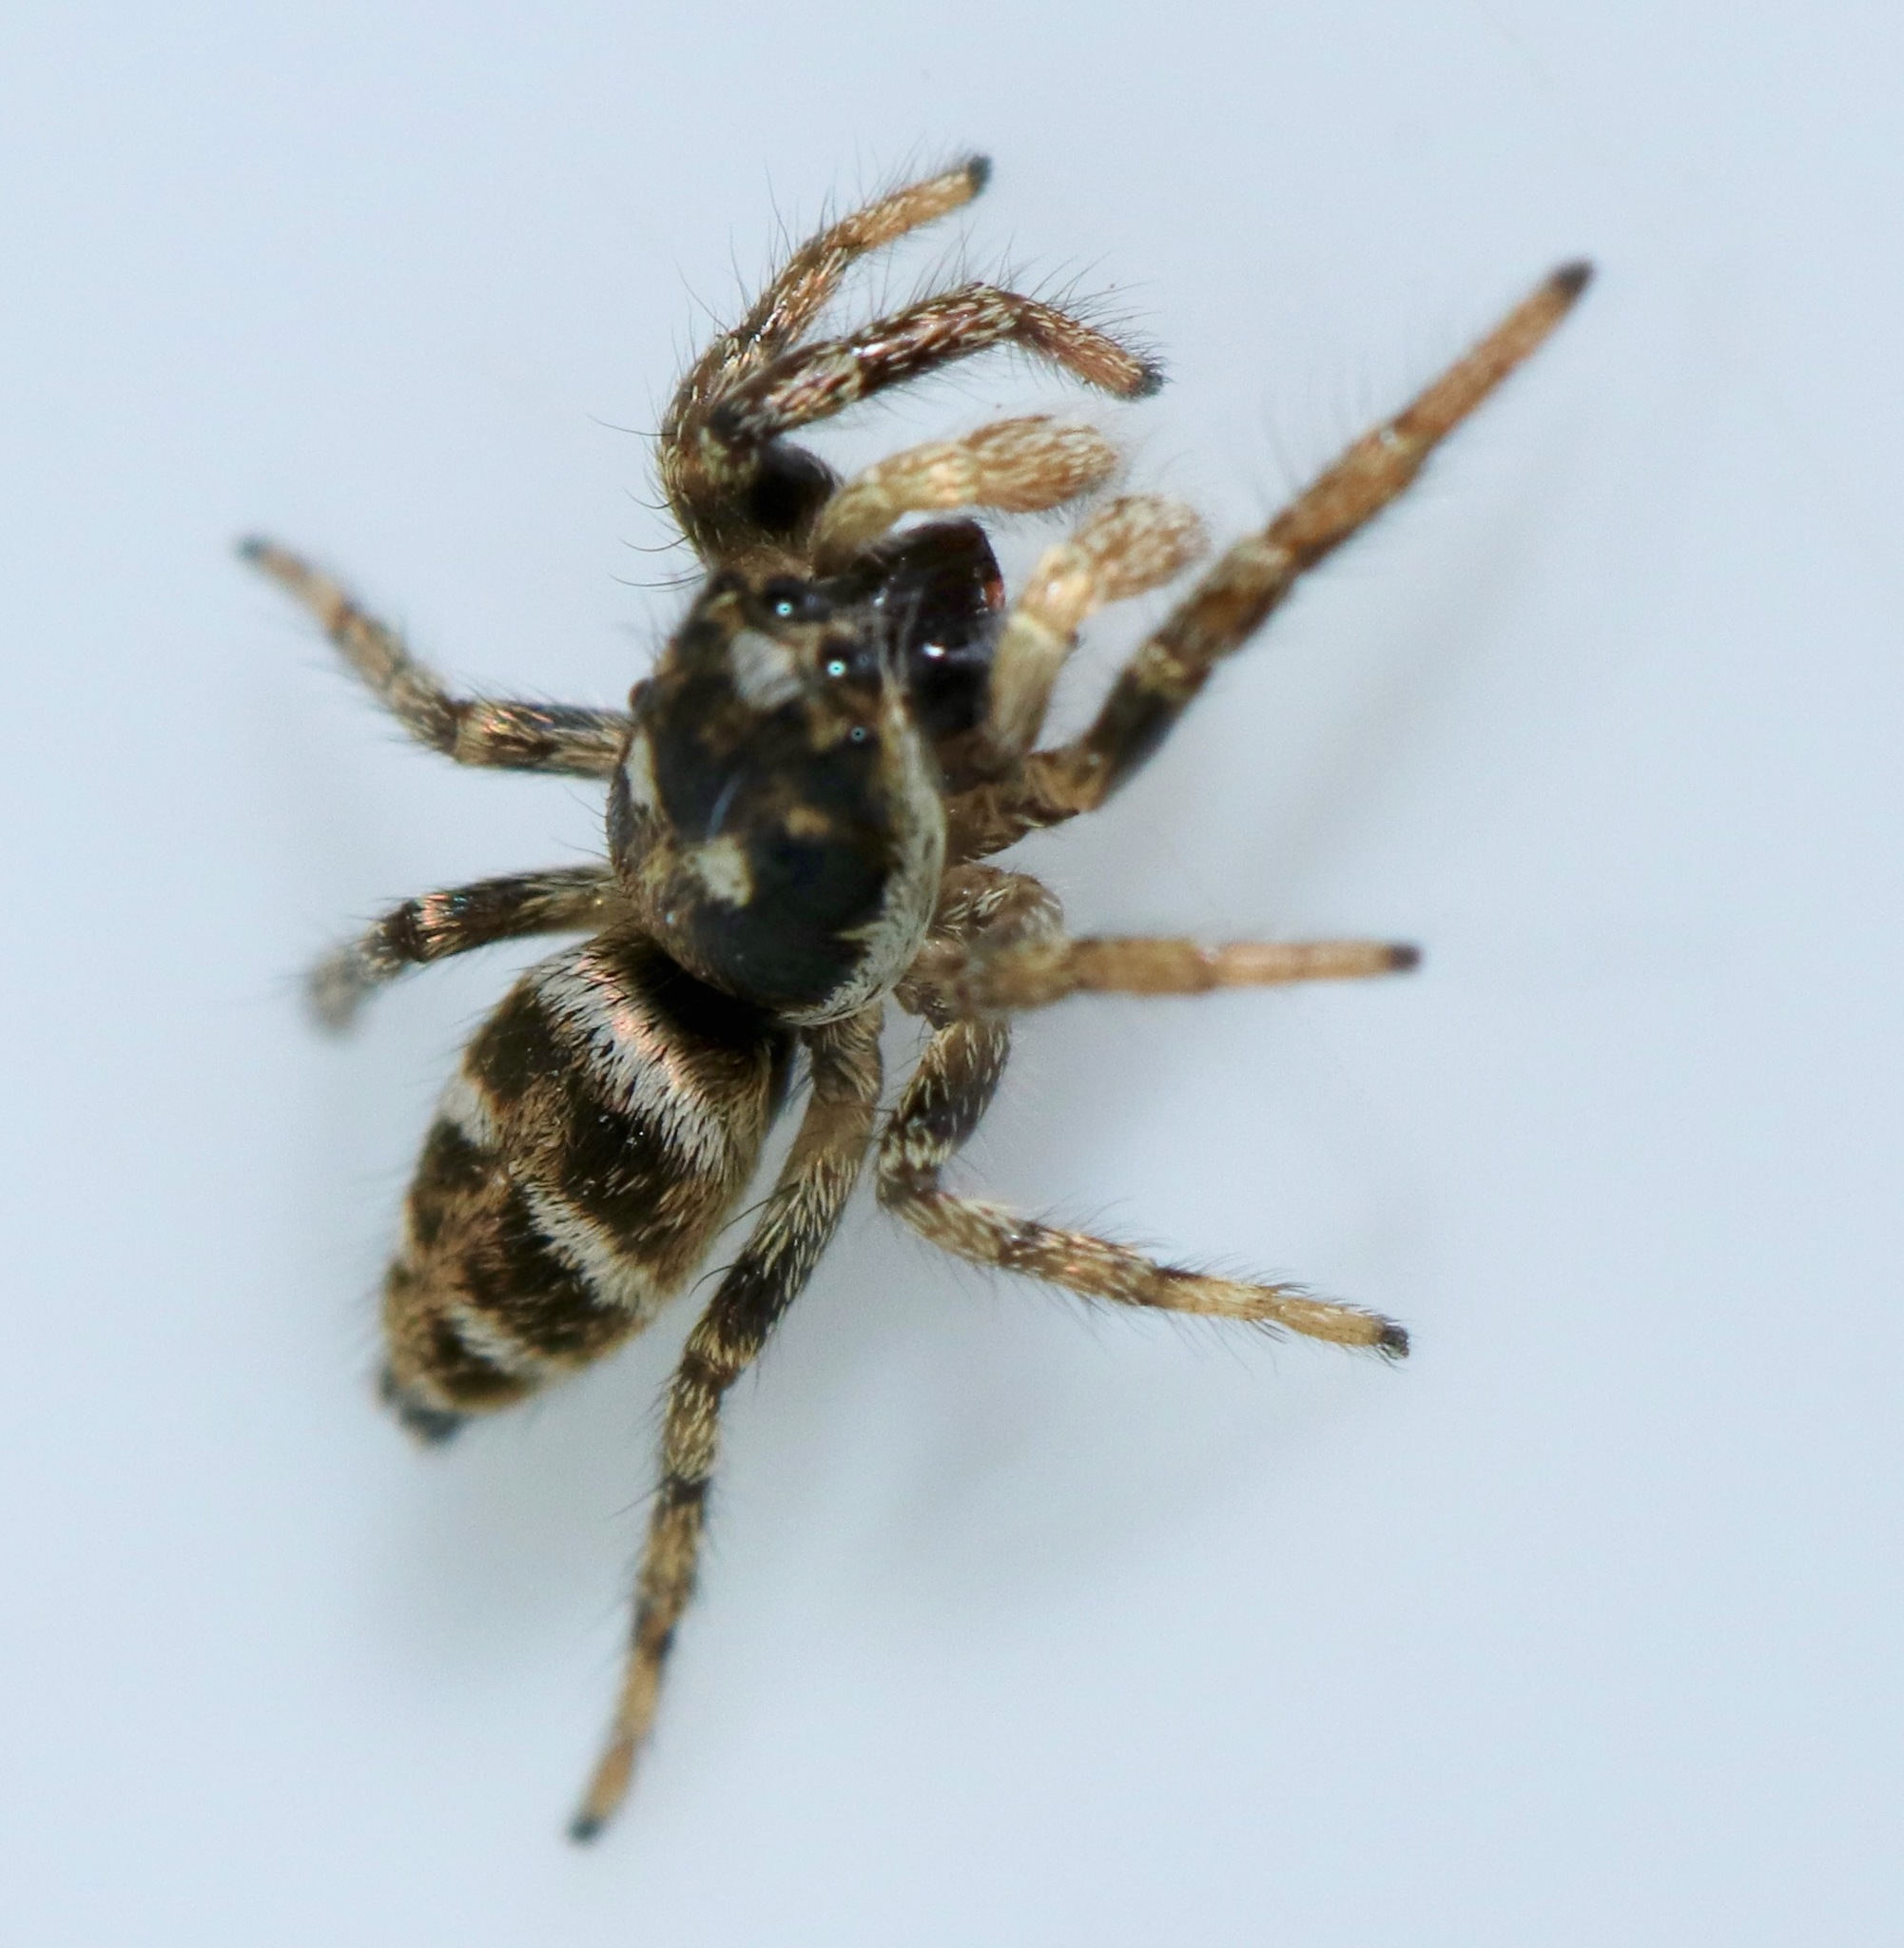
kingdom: Animalia
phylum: Arthropoda
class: Arachnida
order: Araneae
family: Salticidae
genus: Salticus
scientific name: Salticus scenicus
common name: Zebra jumper
